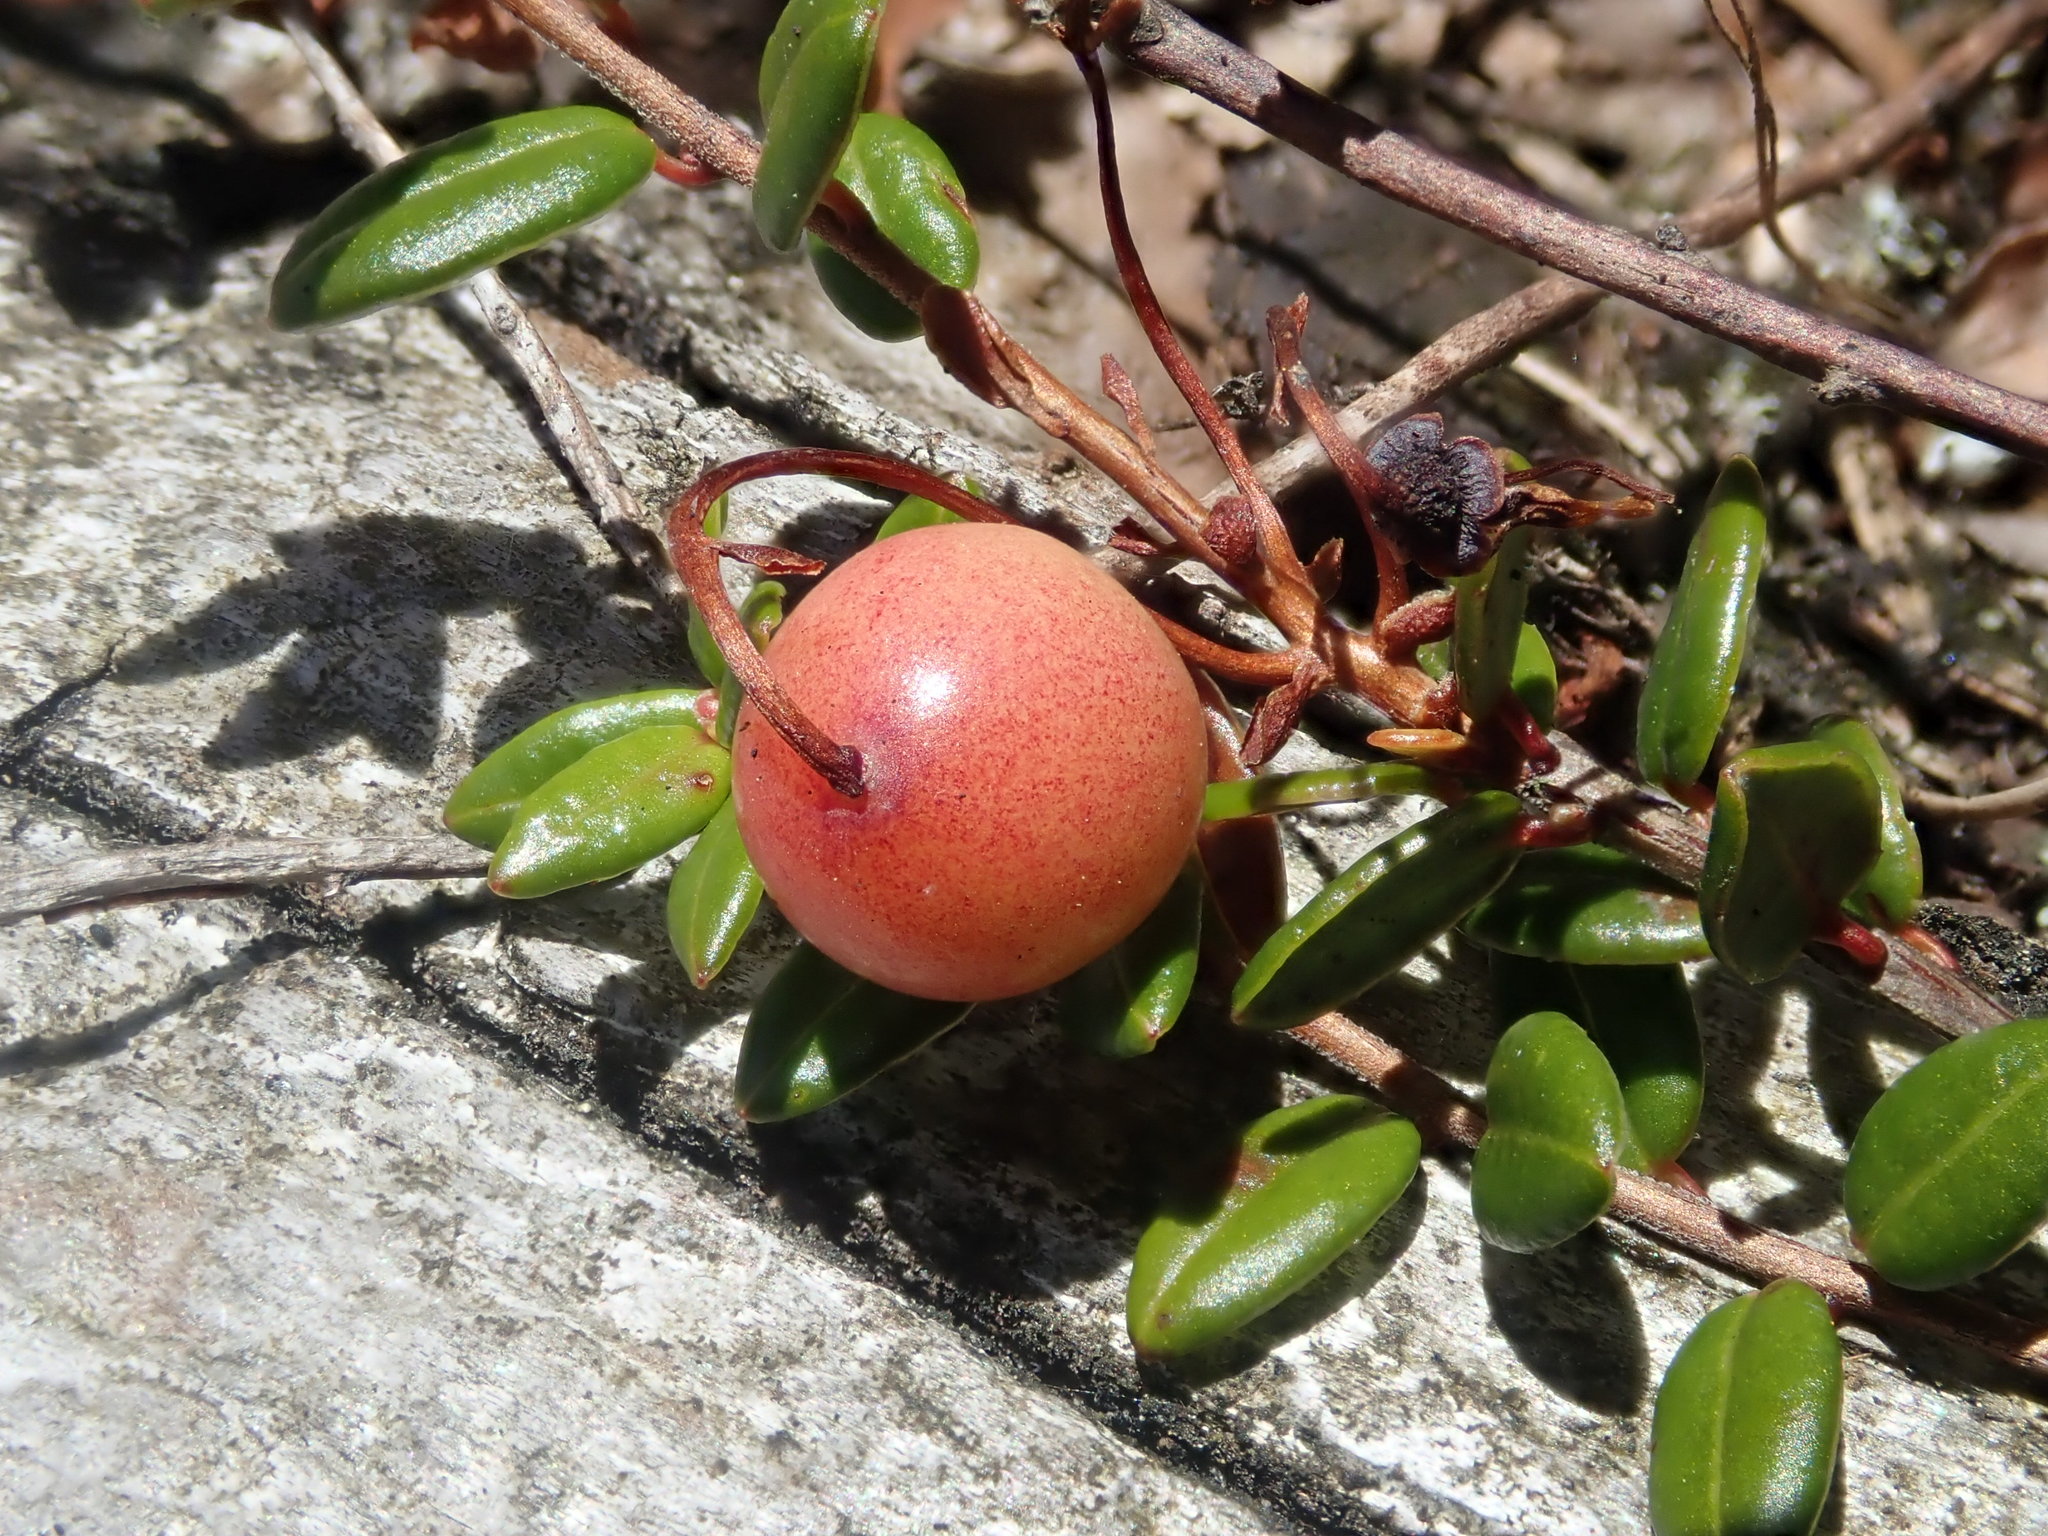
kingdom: Plantae
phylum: Tracheophyta
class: Magnoliopsida
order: Ericales
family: Ericaceae
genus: Vaccinium
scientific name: Vaccinium oxycoccos
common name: Cranberry
